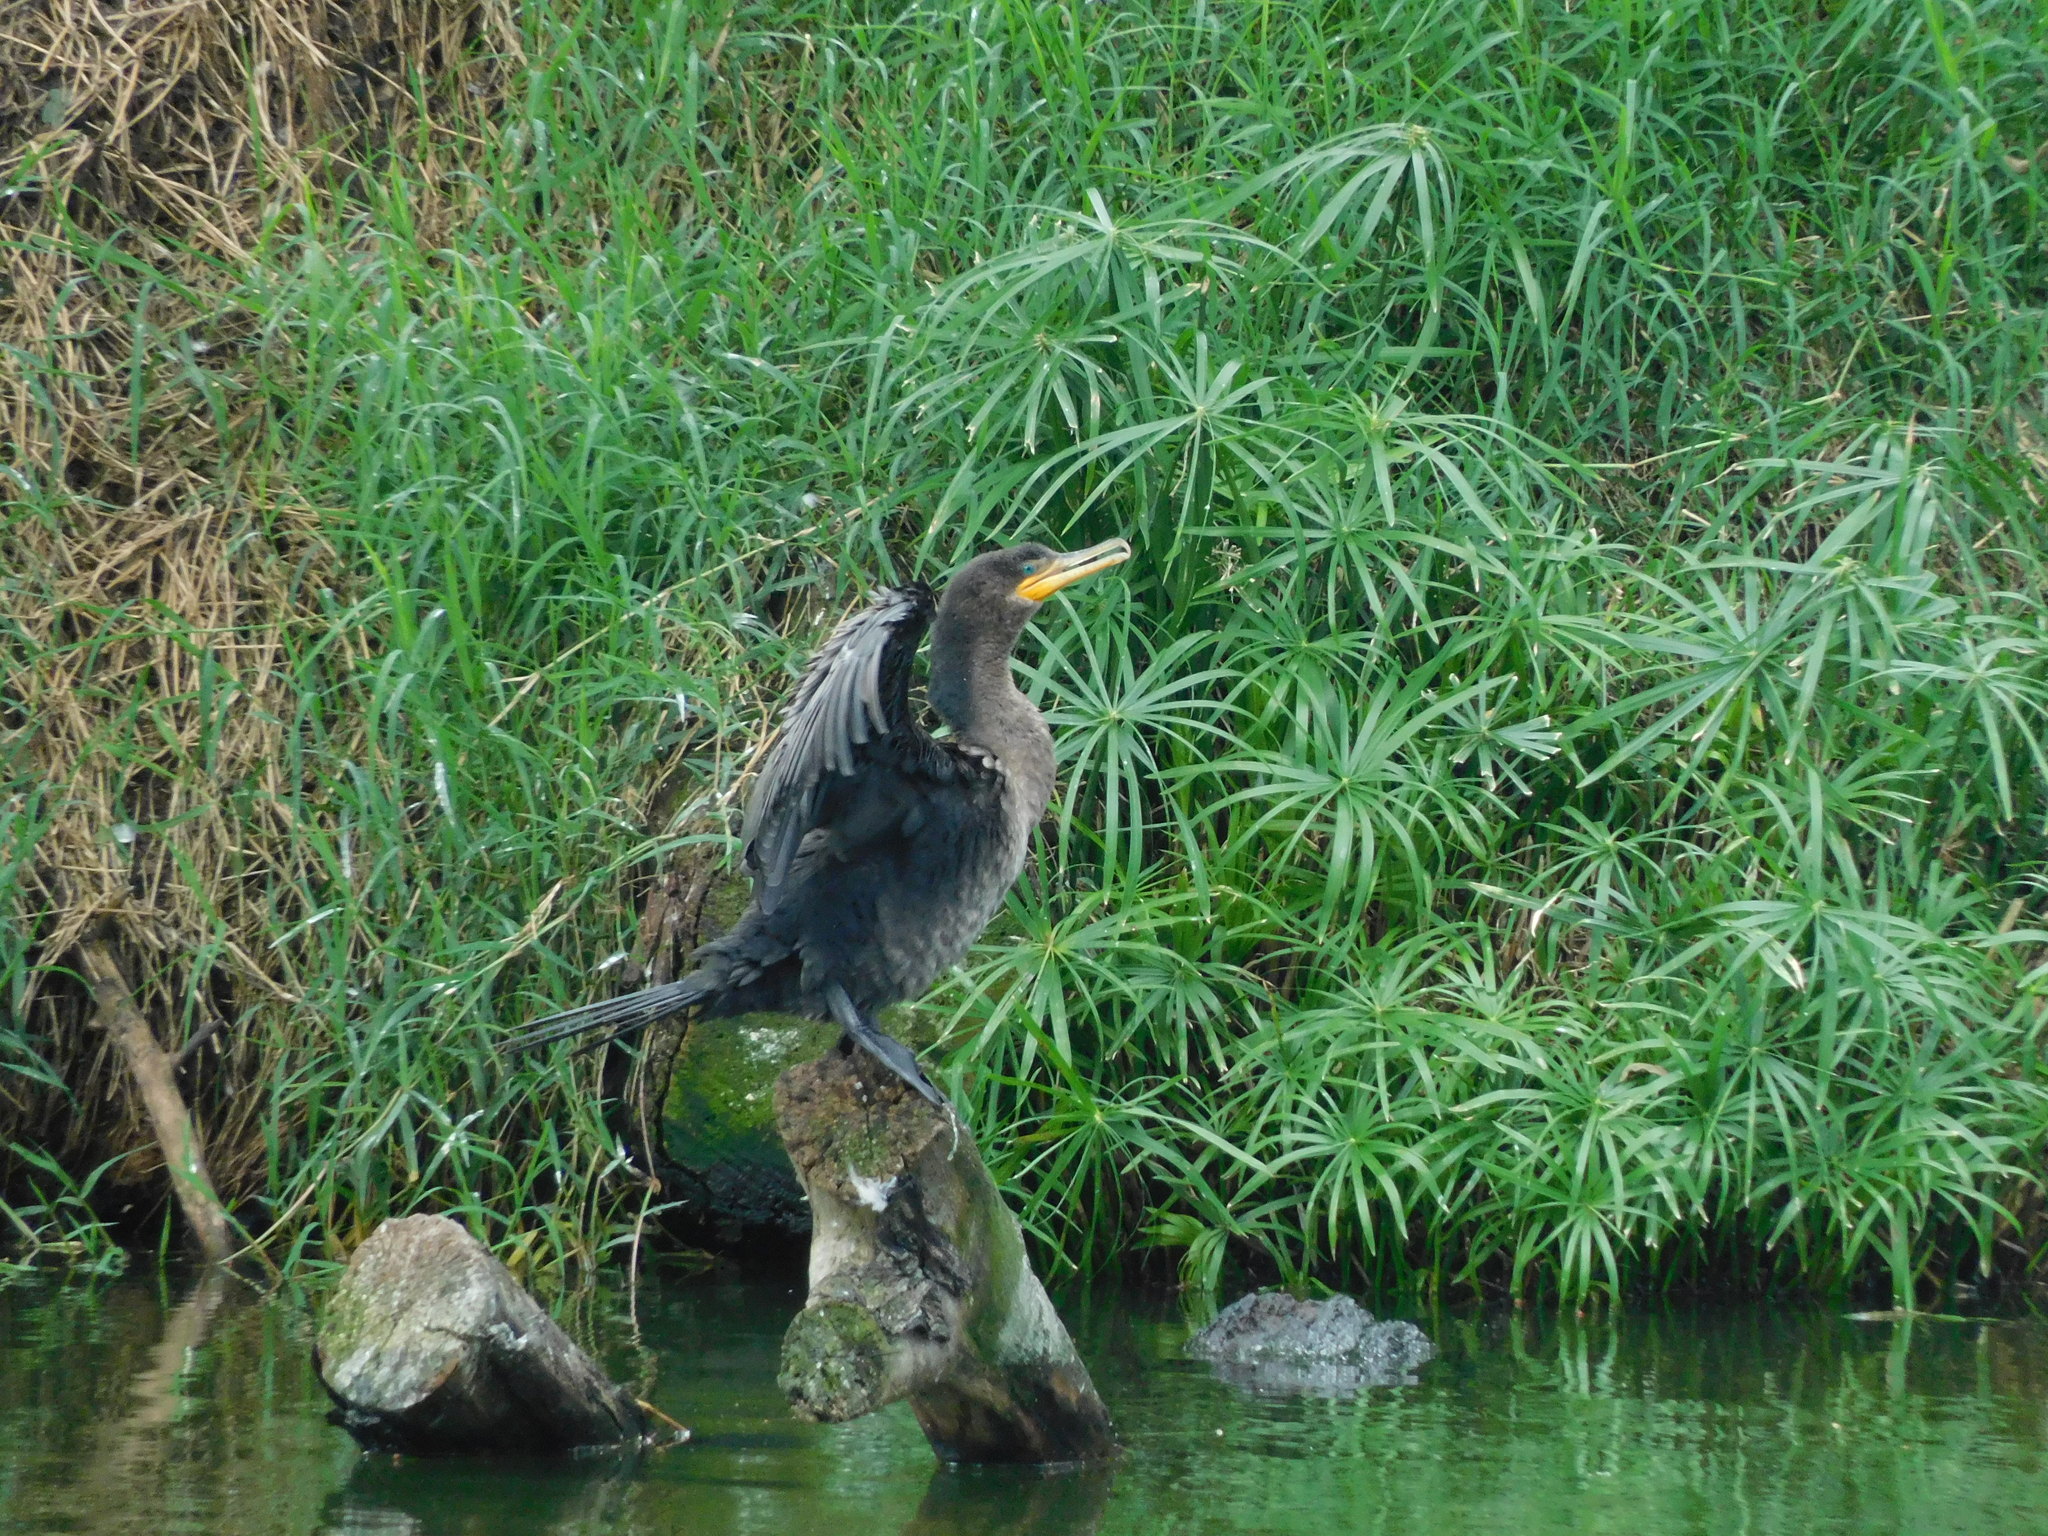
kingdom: Animalia
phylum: Chordata
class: Aves
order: Suliformes
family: Phalacrocoracidae
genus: Phalacrocorax
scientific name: Phalacrocorax brasilianus
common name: Neotropic cormorant
